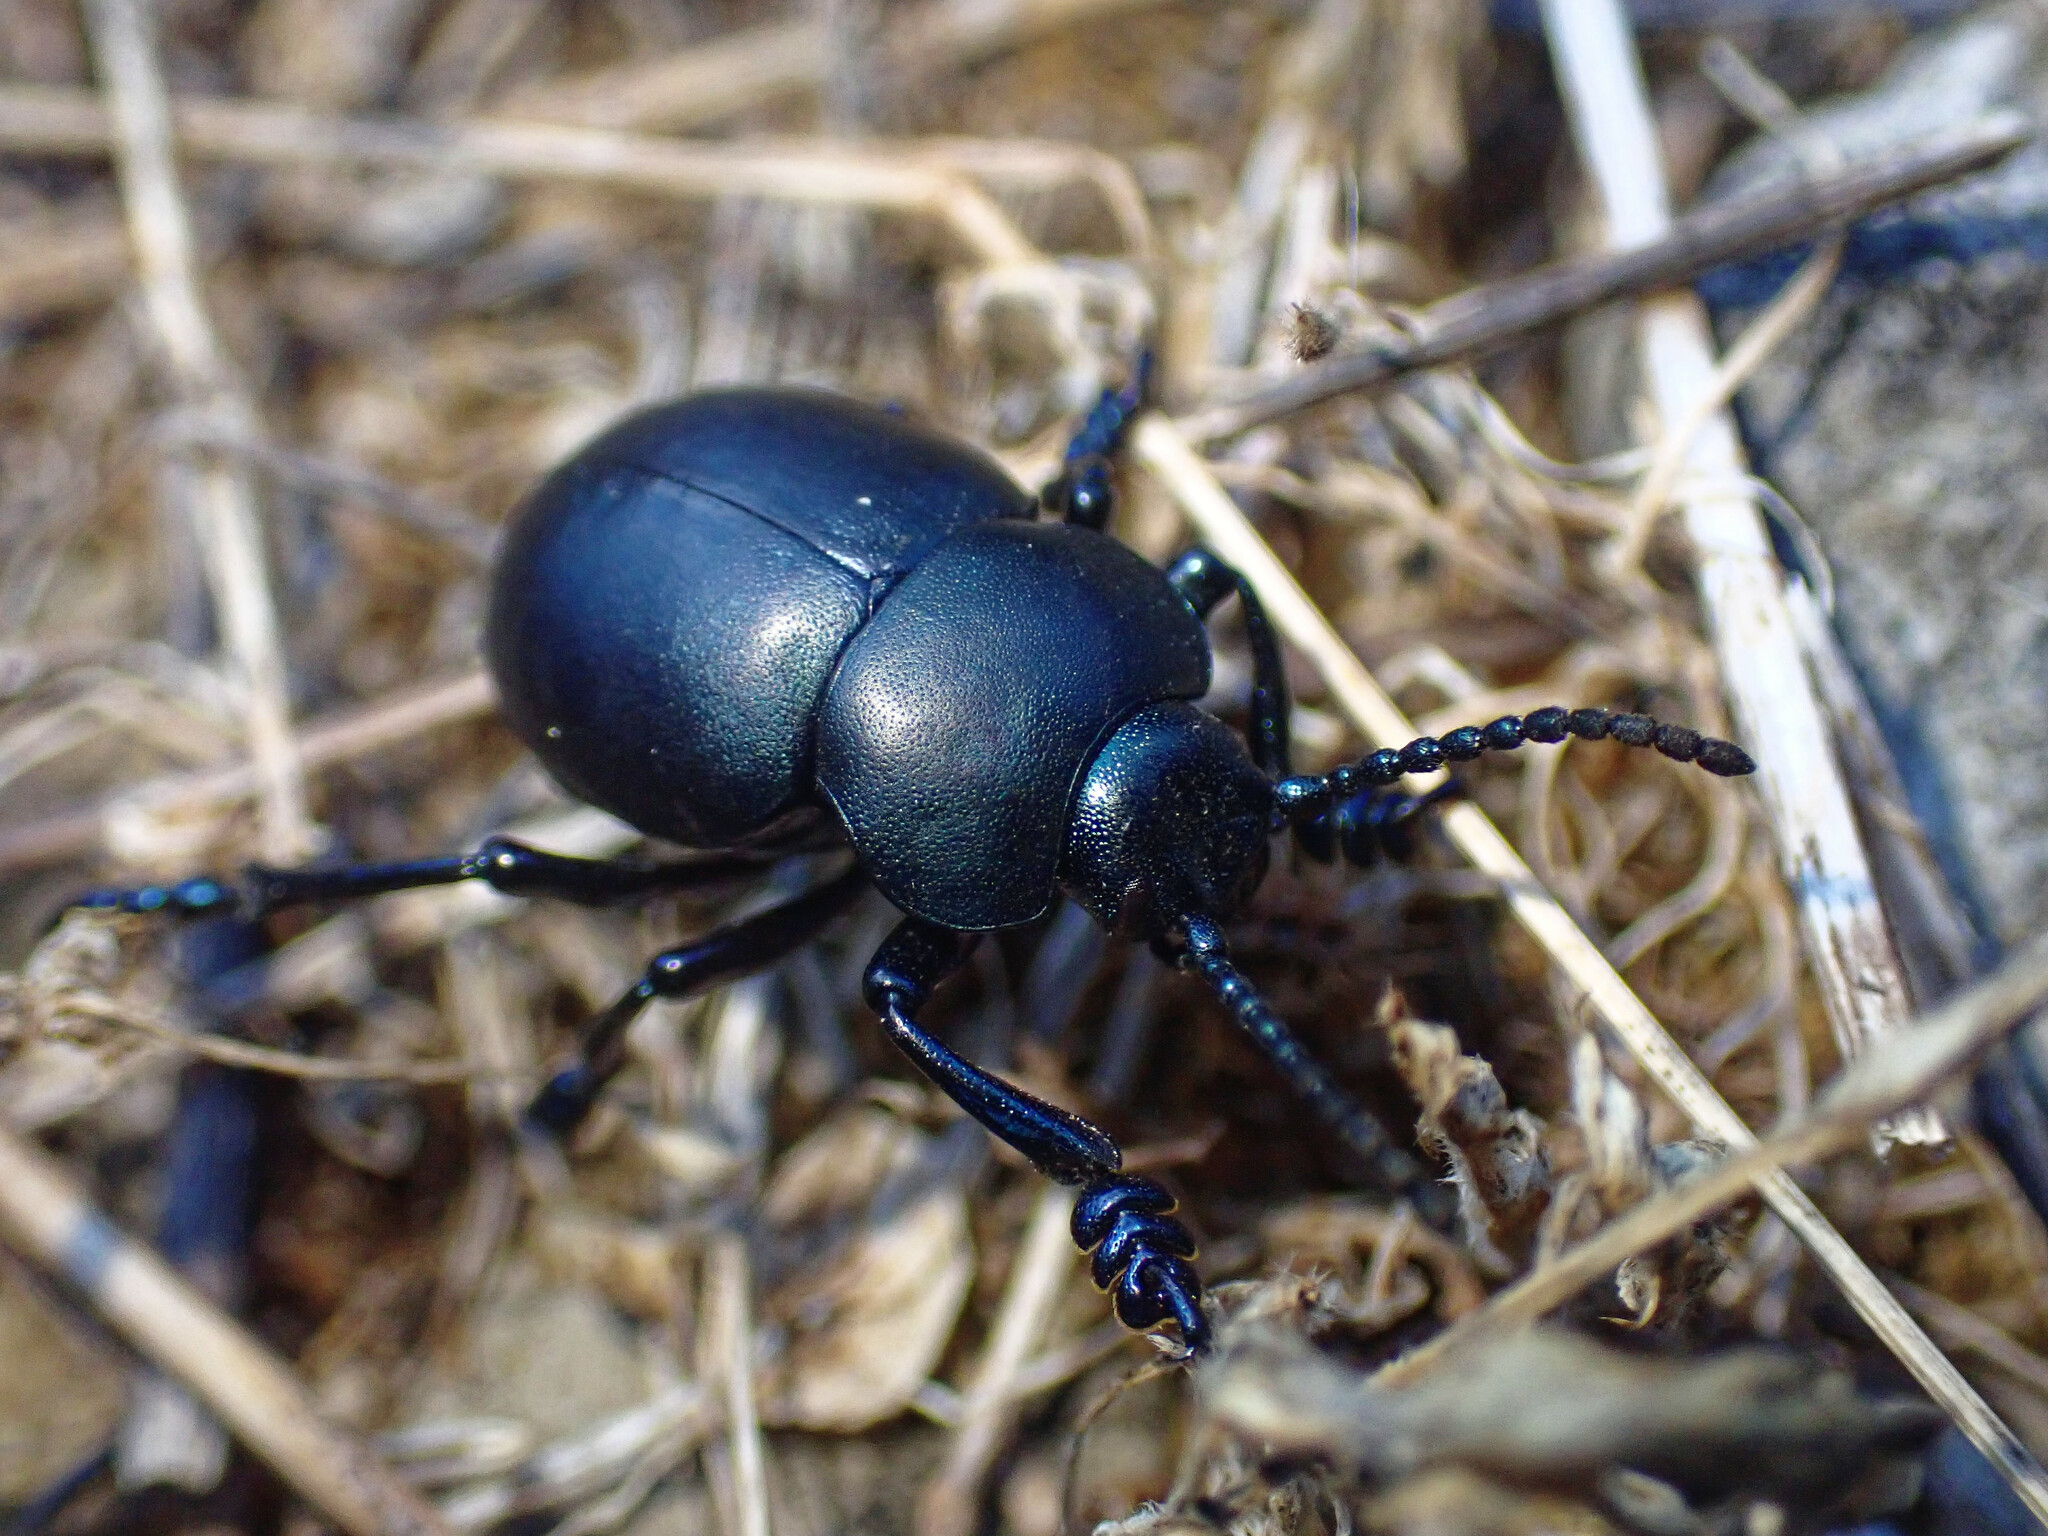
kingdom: Animalia
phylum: Arthropoda
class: Insecta
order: Coleoptera
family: Chrysomelidae
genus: Timarcha
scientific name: Timarcha tenebricosa
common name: Bloody-nosed beetle
